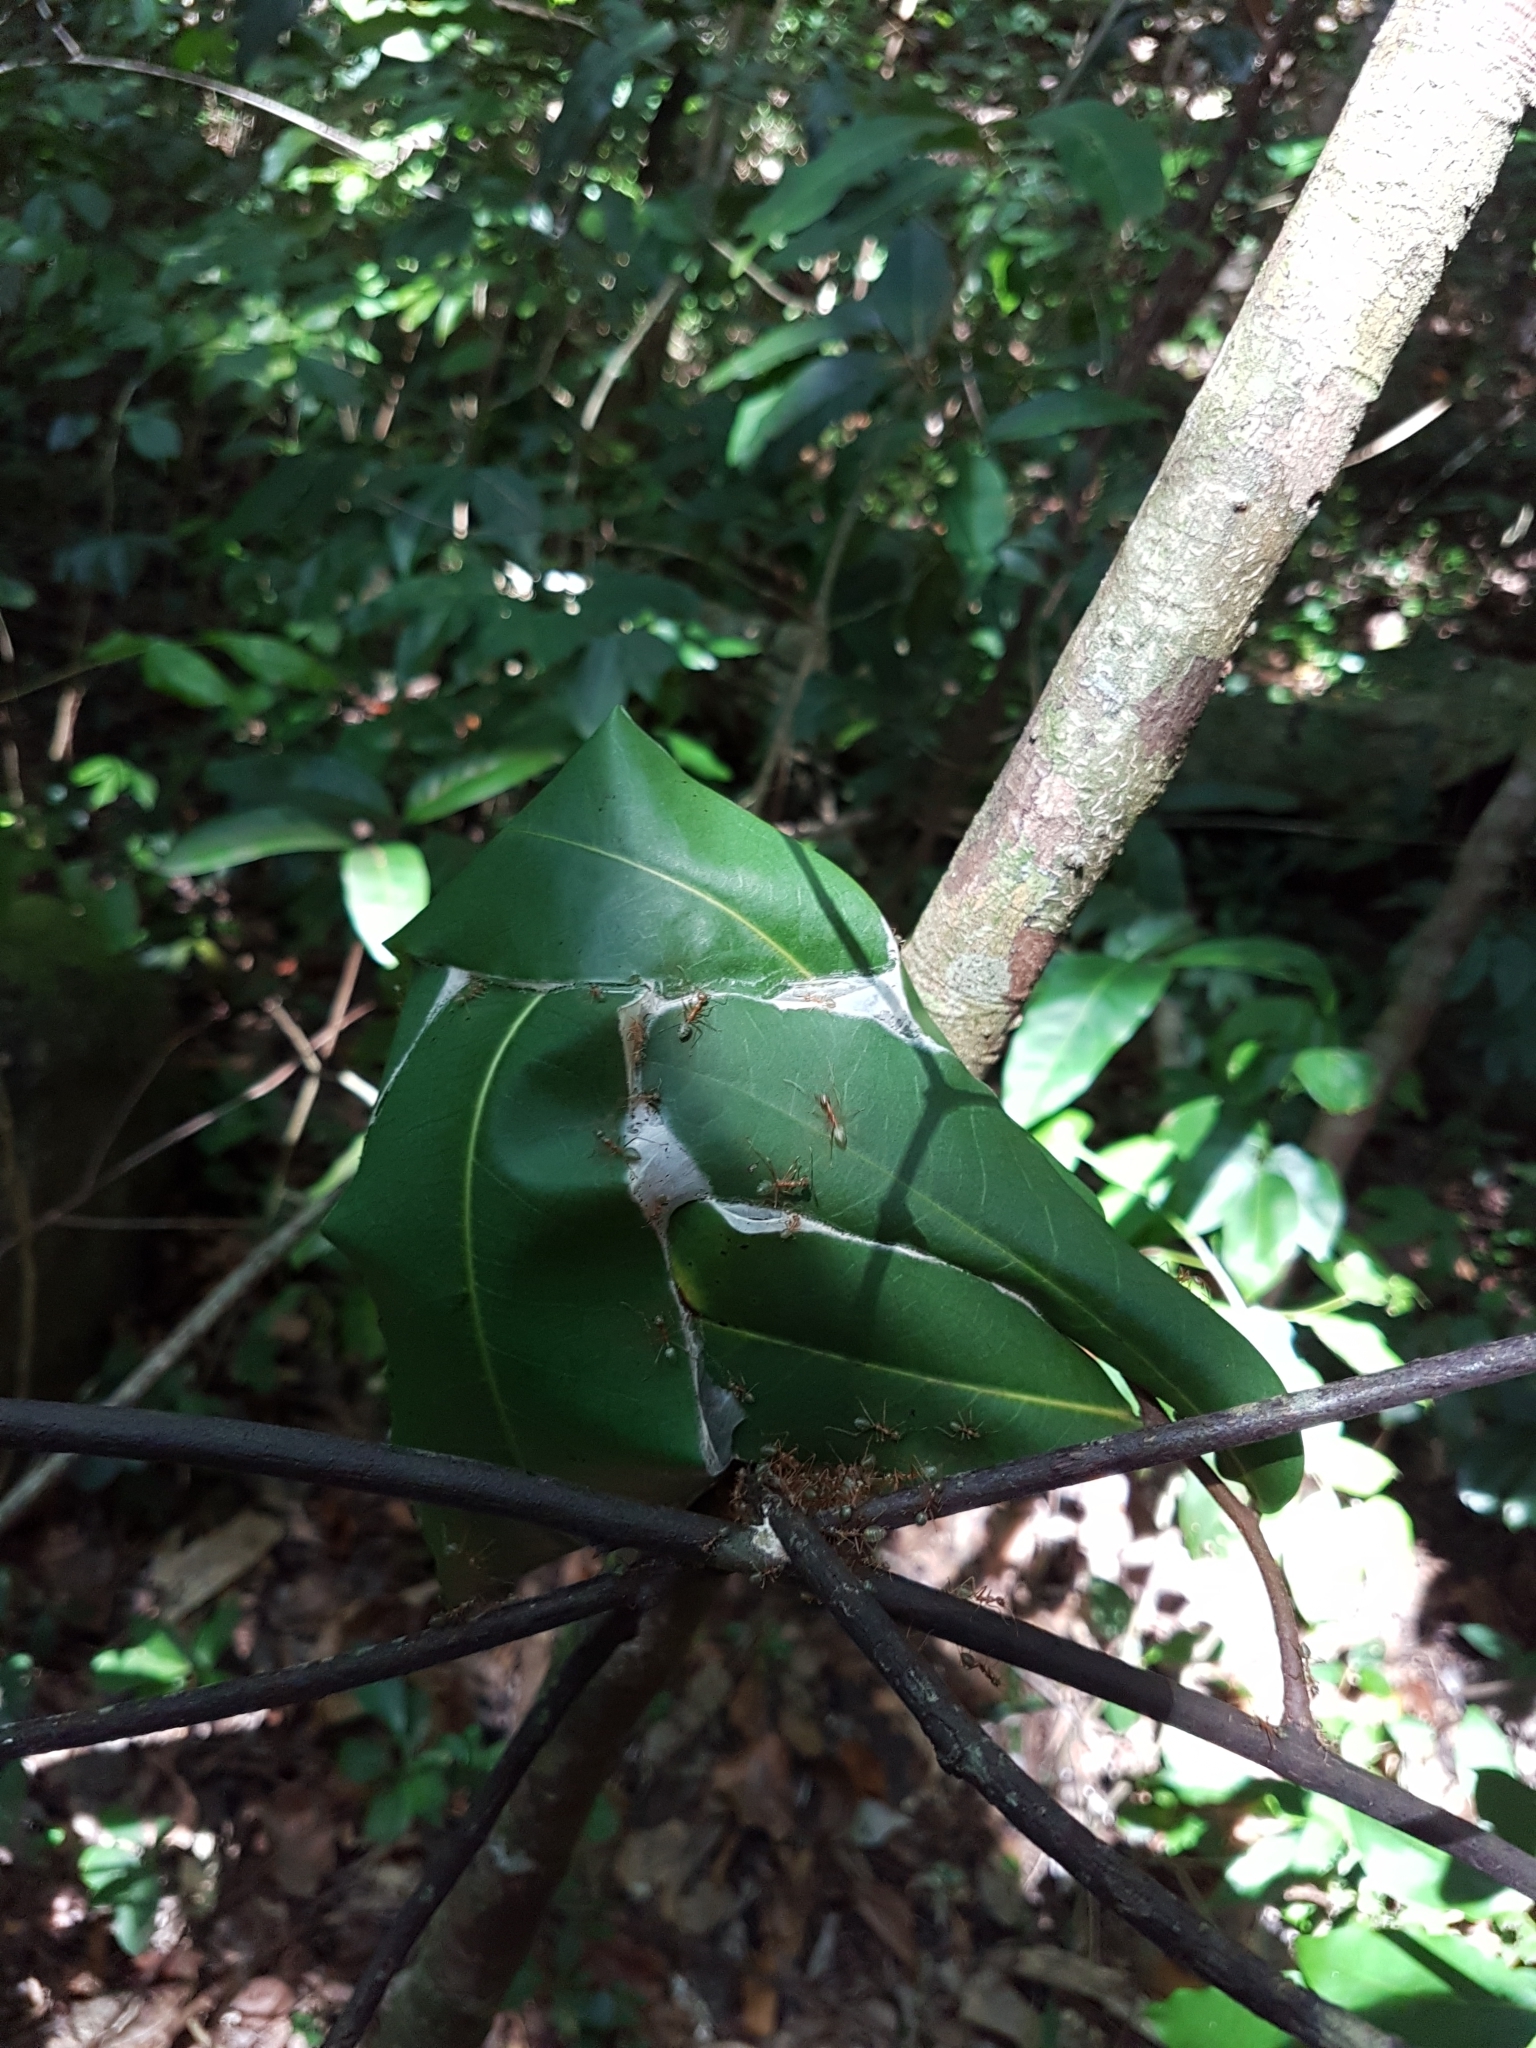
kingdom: Animalia
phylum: Arthropoda
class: Insecta
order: Hymenoptera
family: Formicidae
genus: Oecophylla
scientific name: Oecophylla smaragdina
